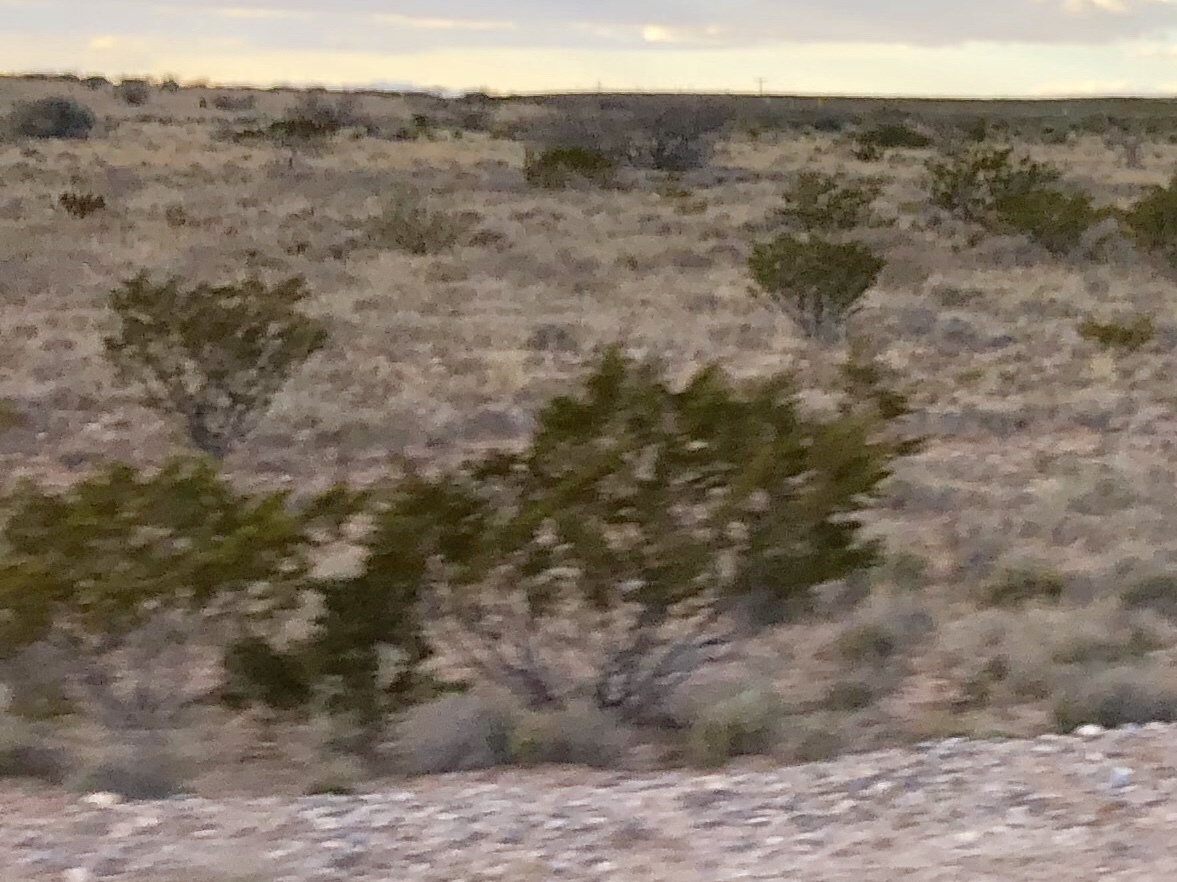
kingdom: Plantae
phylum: Tracheophyta
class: Magnoliopsida
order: Zygophyllales
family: Zygophyllaceae
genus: Larrea
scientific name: Larrea tridentata
